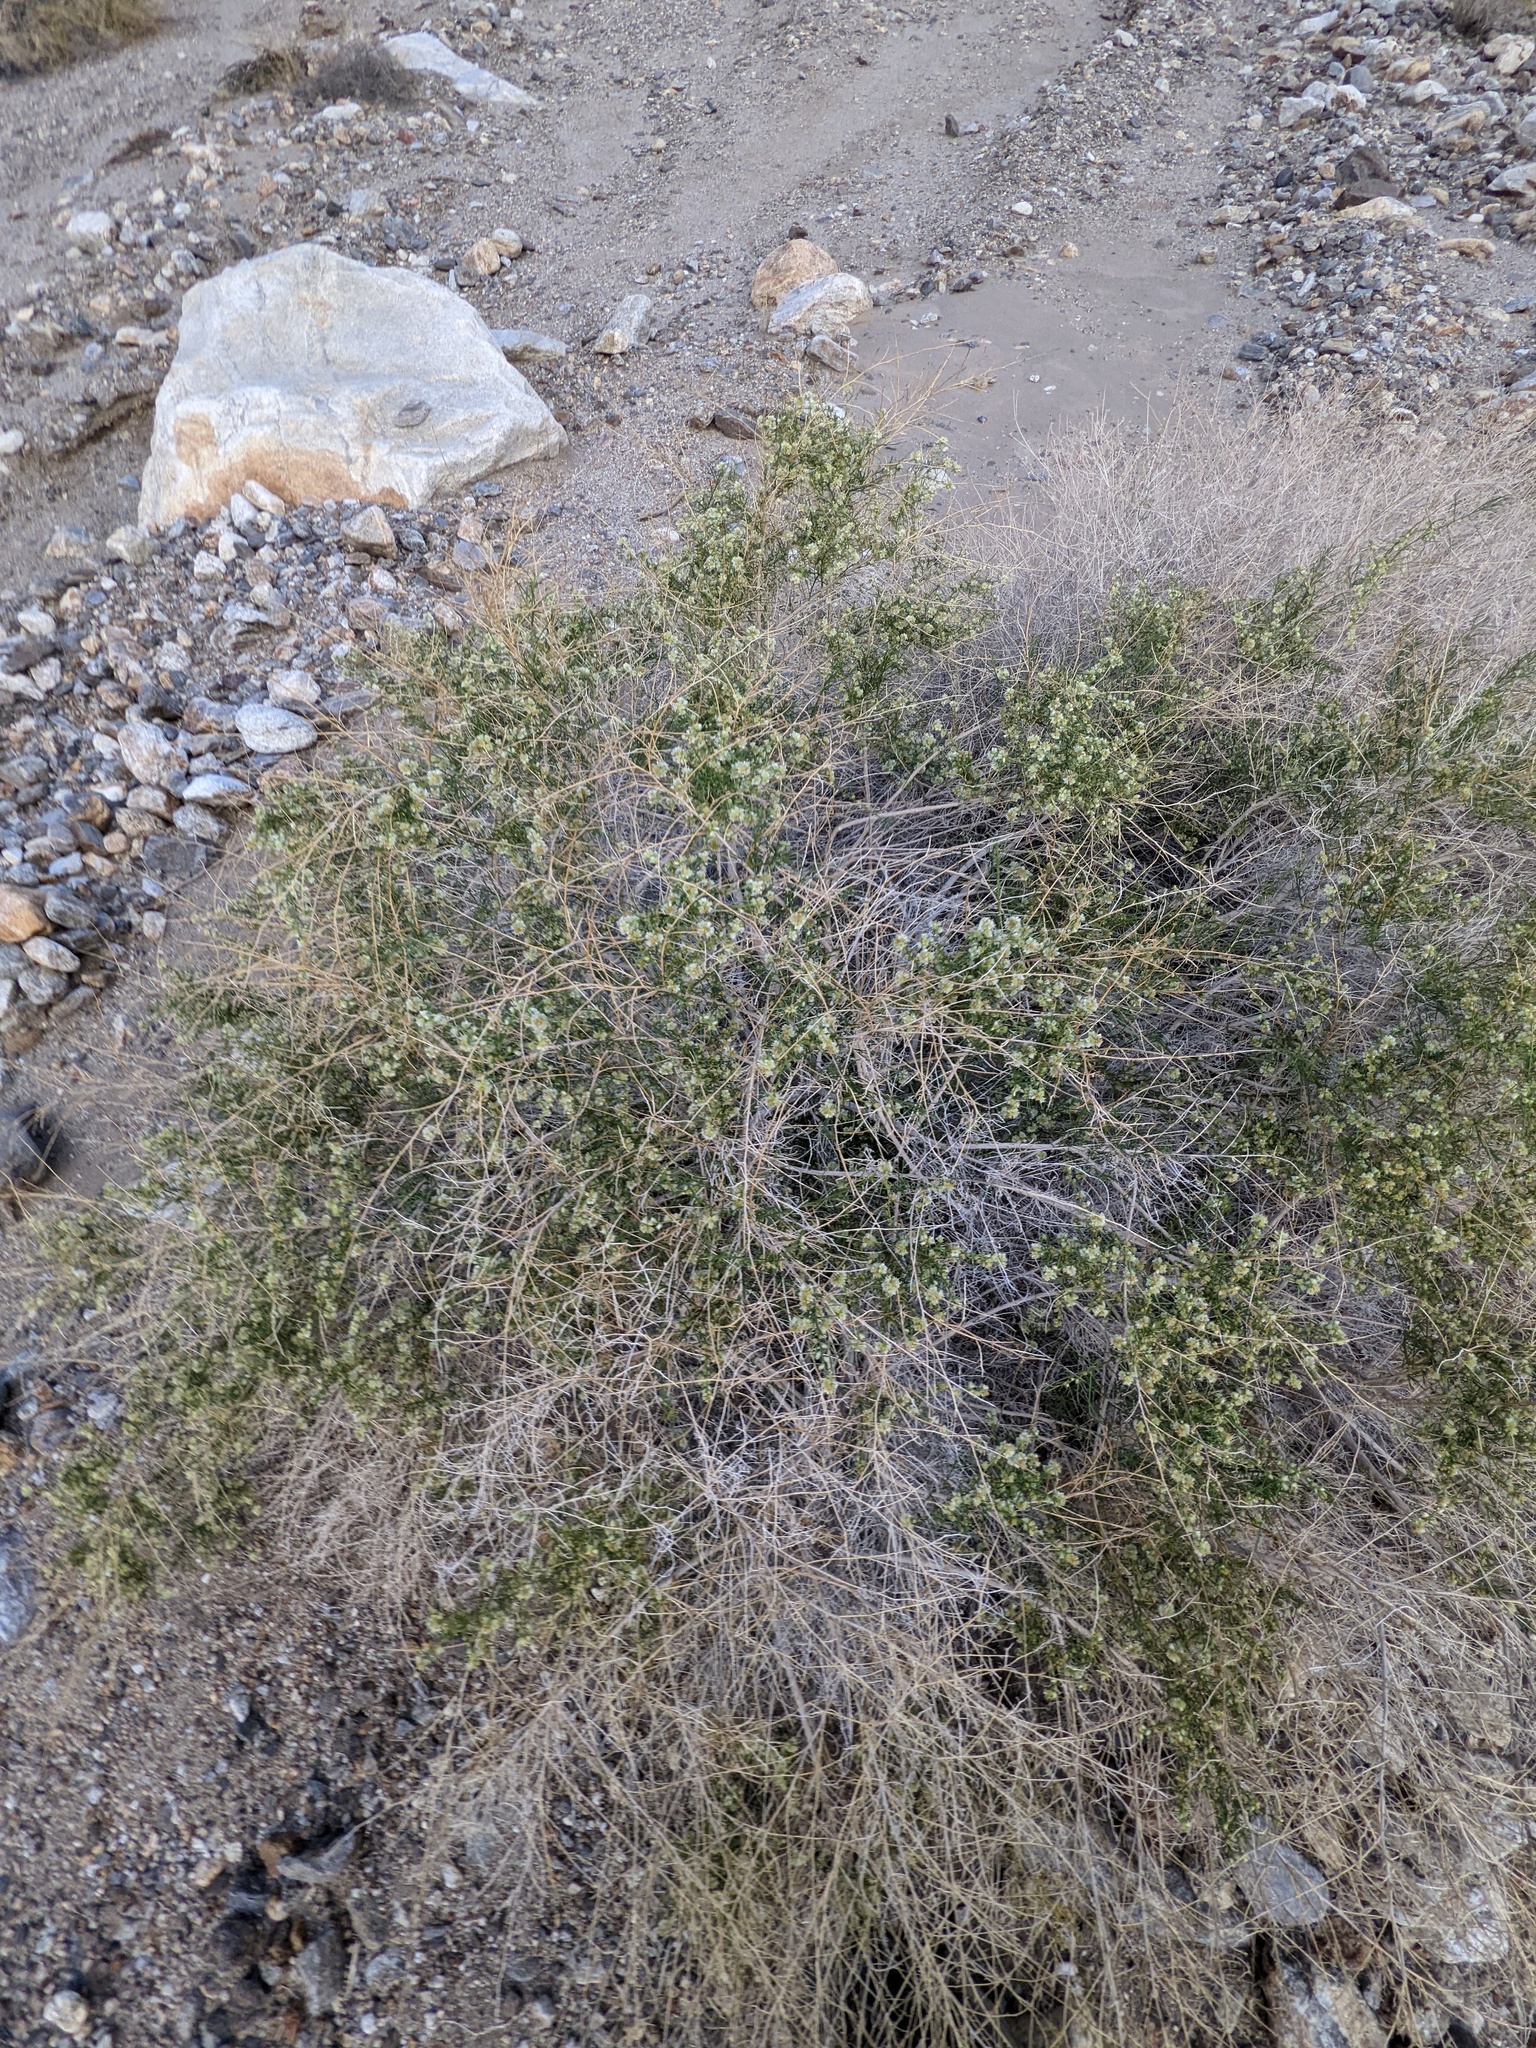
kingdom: Plantae
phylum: Tracheophyta
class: Magnoliopsida
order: Asterales
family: Asteraceae
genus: Ambrosia
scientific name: Ambrosia salsola
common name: Burrobrush
